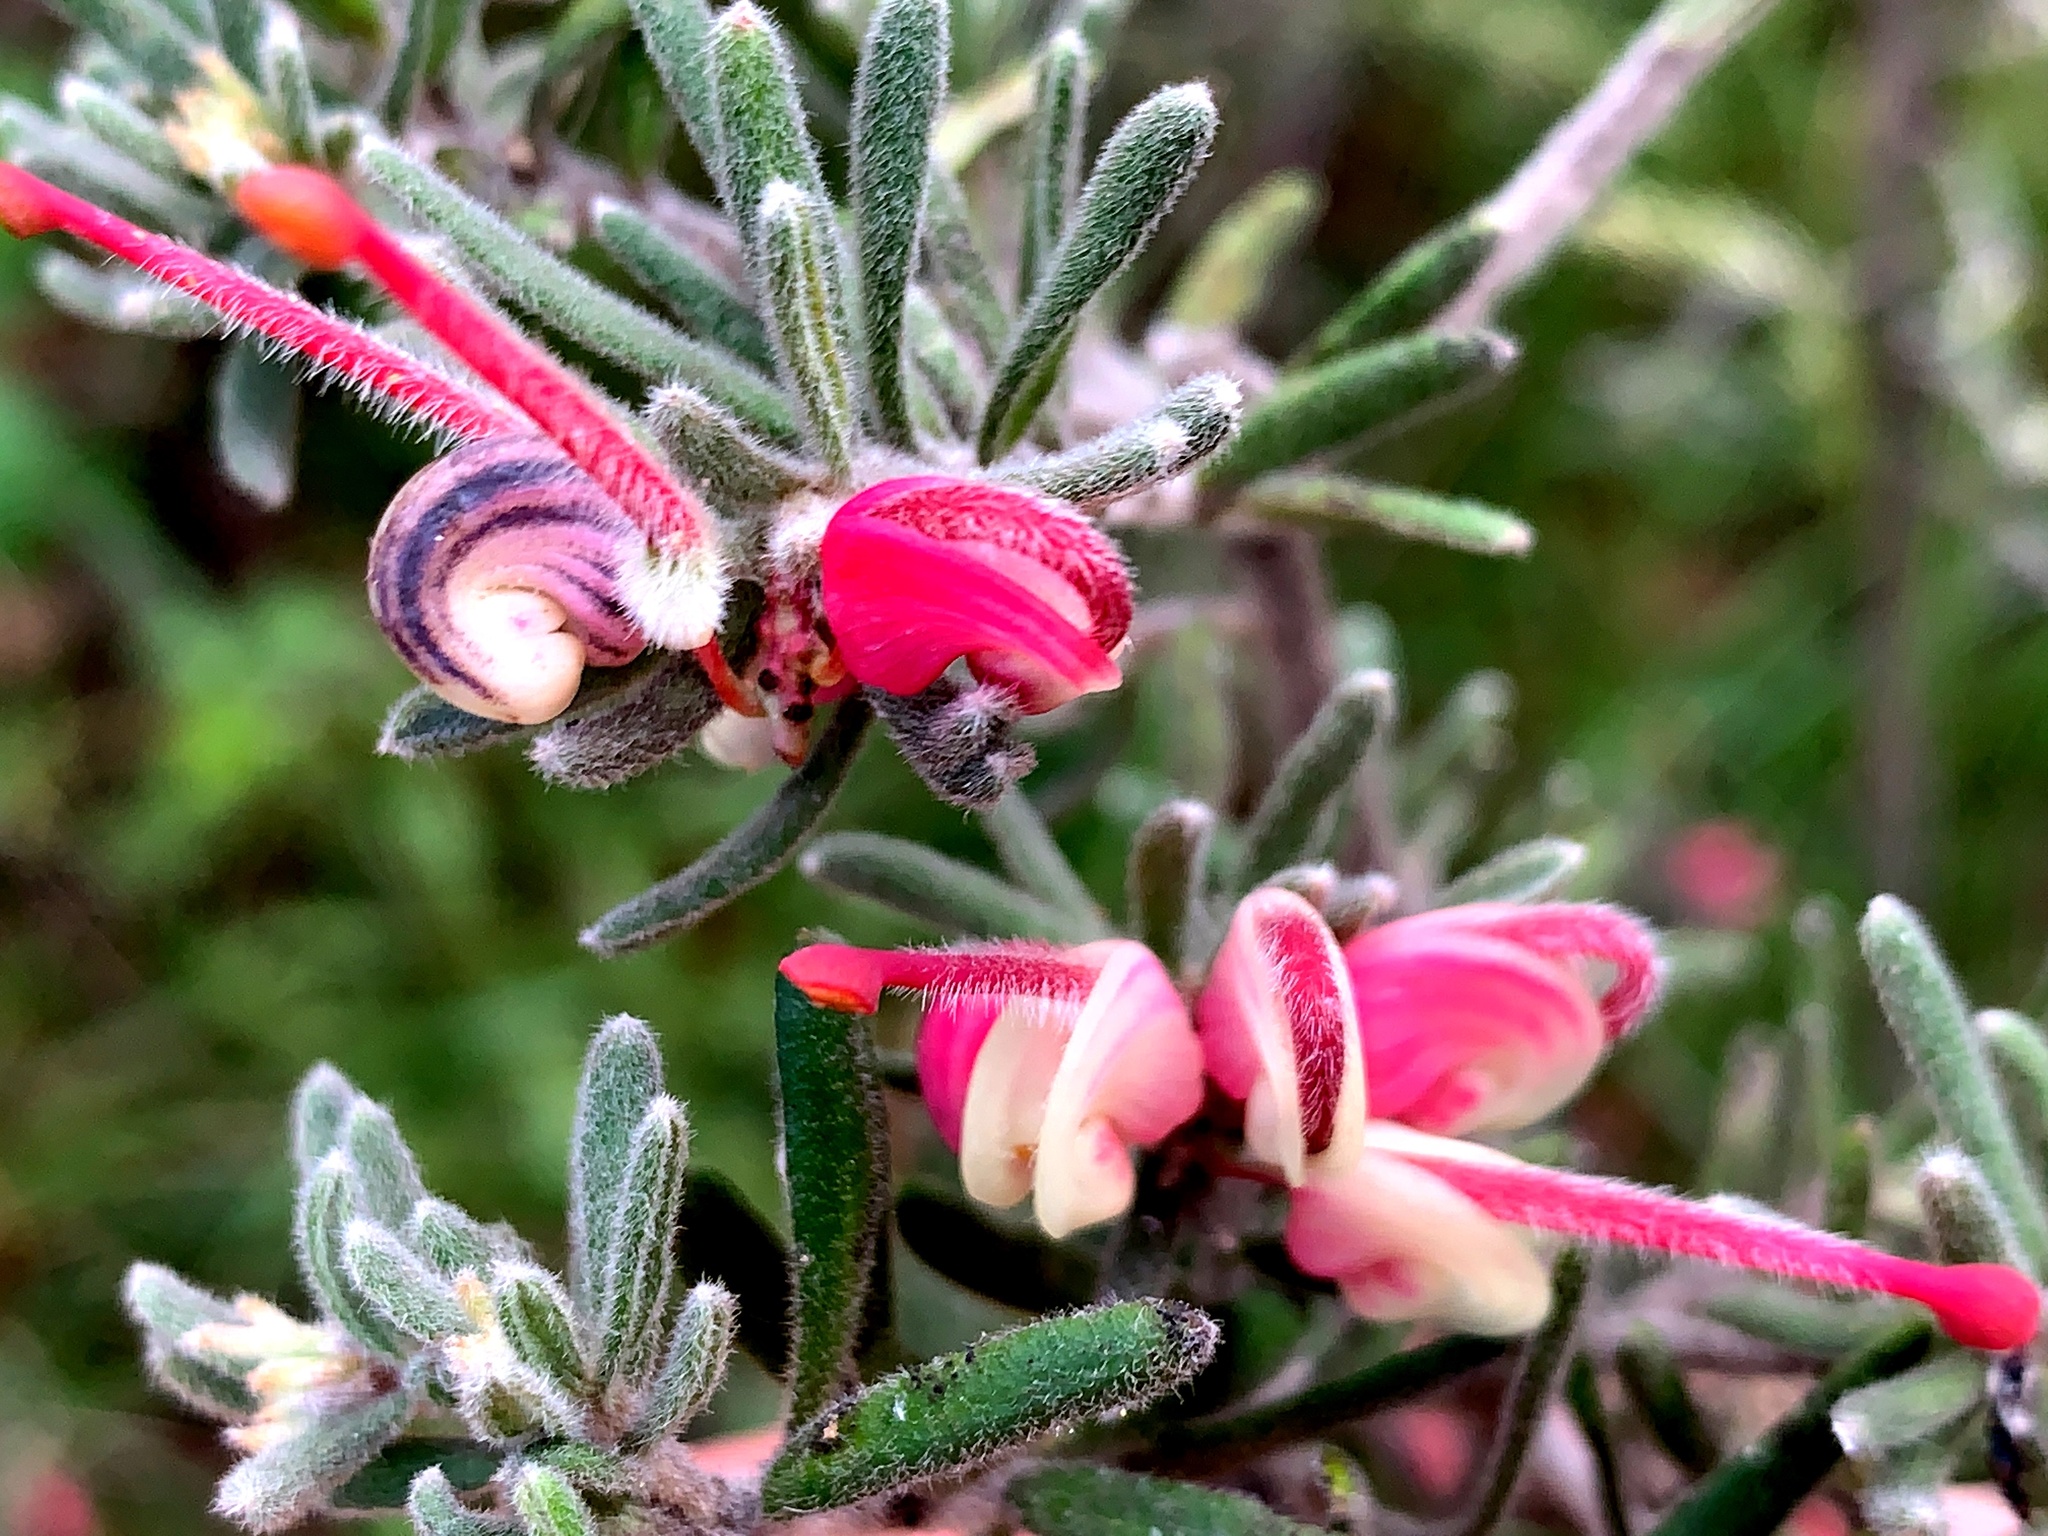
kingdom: Plantae
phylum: Tracheophyta
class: Magnoliopsida
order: Proteales
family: Proteaceae
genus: Grevillea
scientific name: Grevillea lanigera
